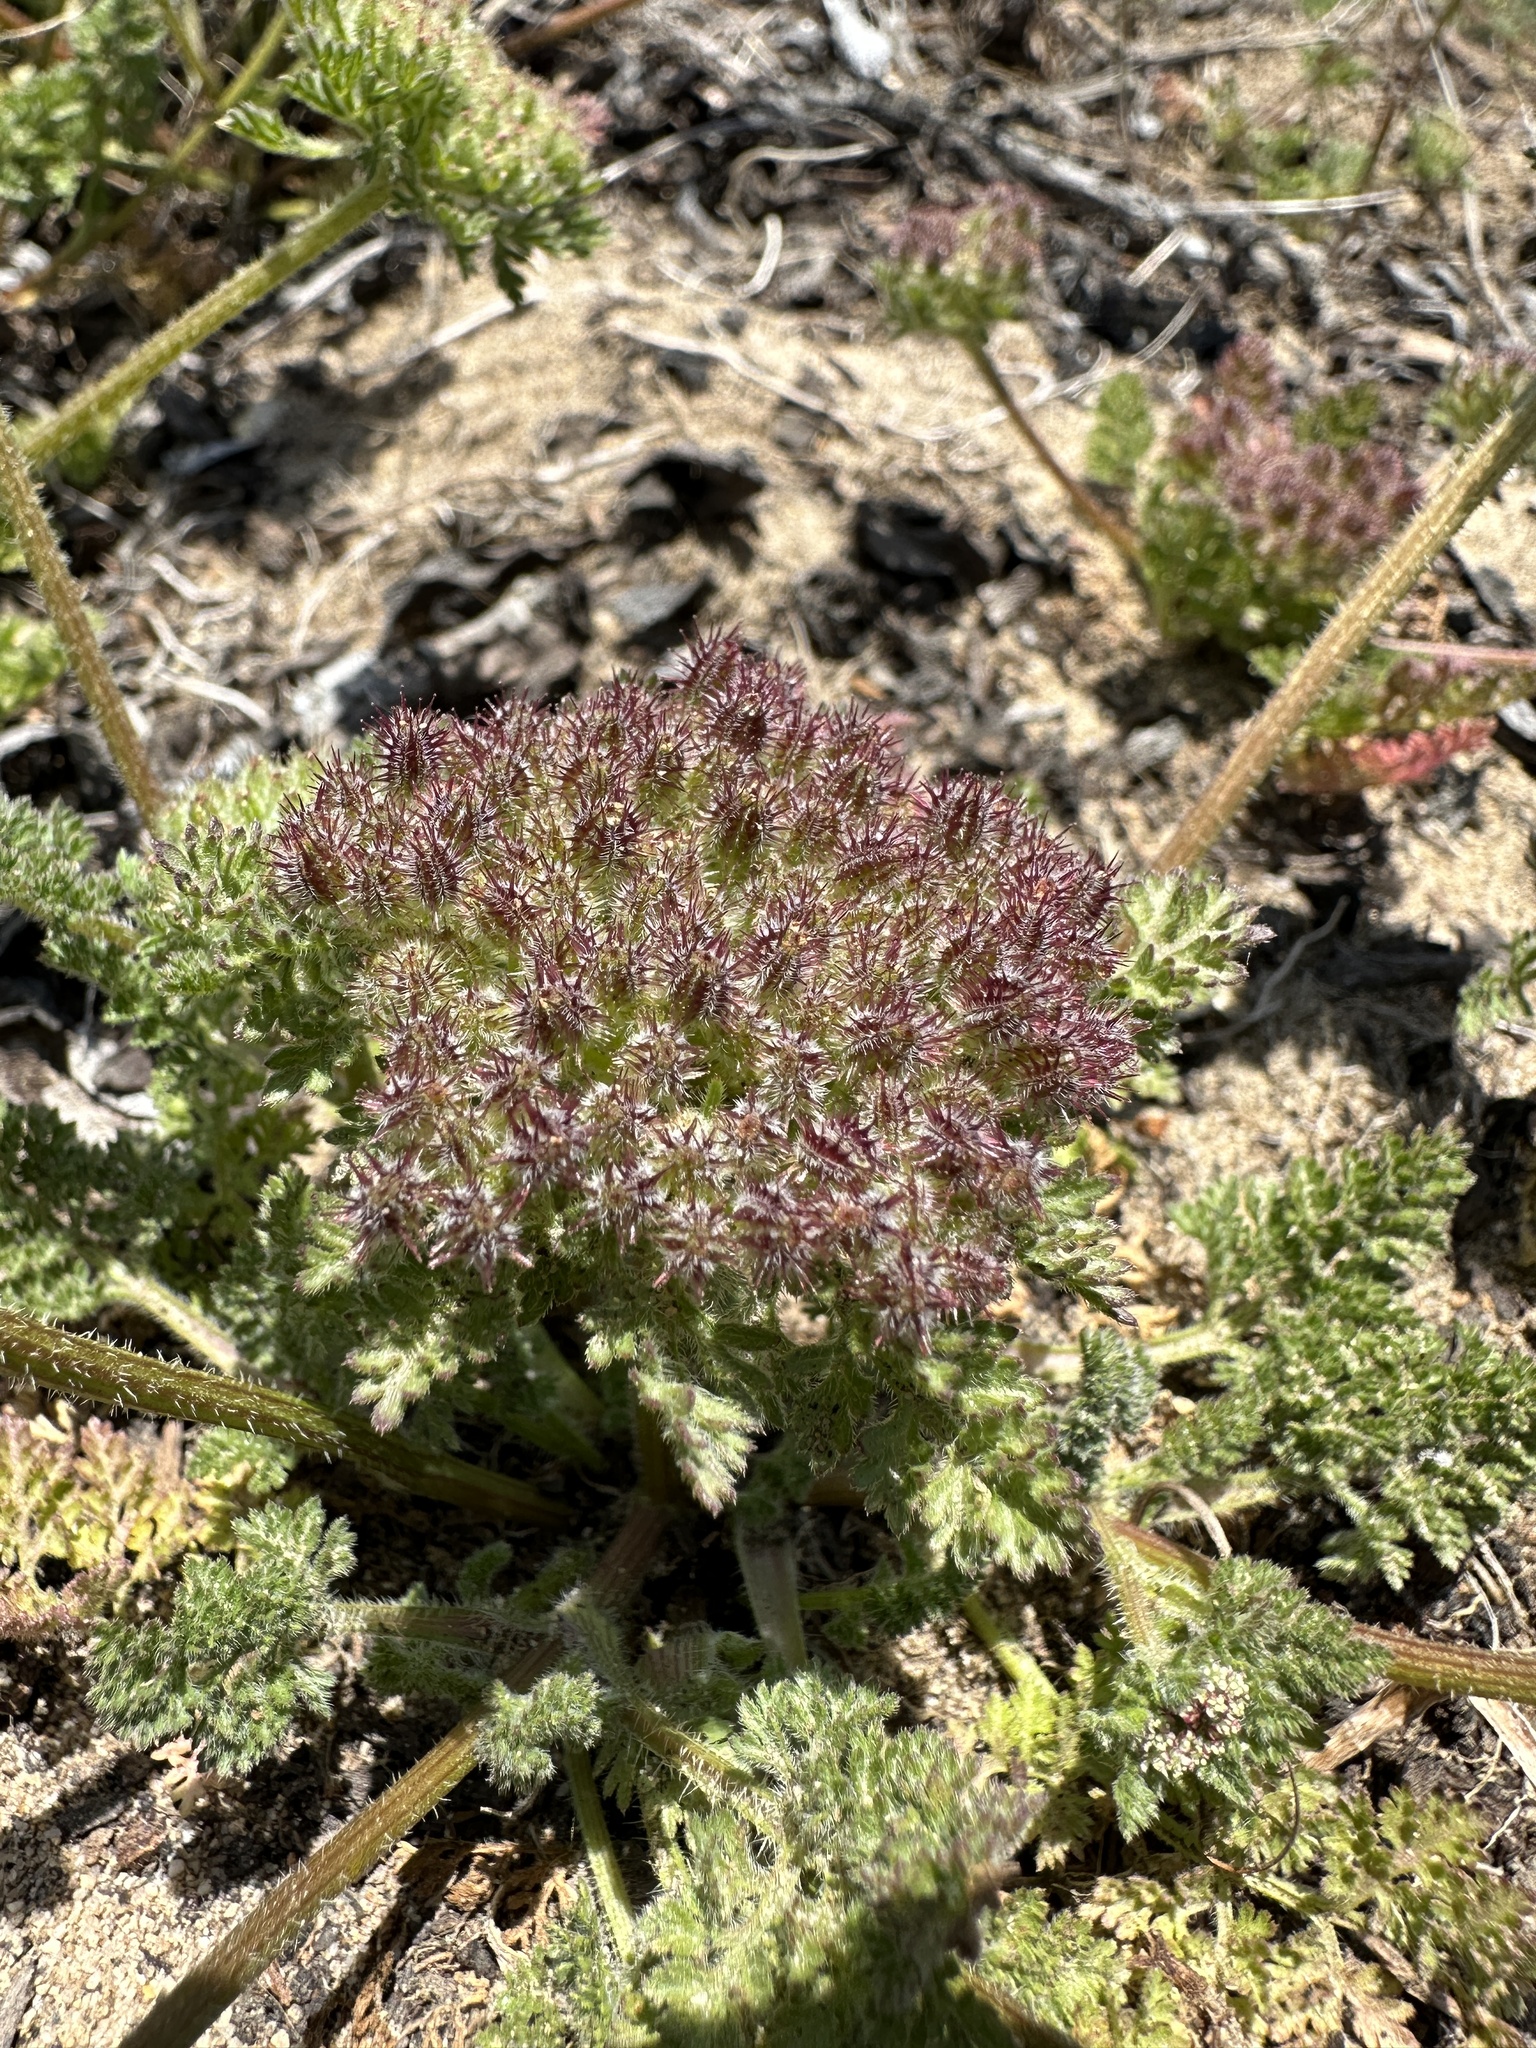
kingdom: Plantae
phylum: Tracheophyta
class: Magnoliopsida
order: Apiales
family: Apiaceae
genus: Daucus
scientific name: Daucus pusillus
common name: Southwest wild carrot
